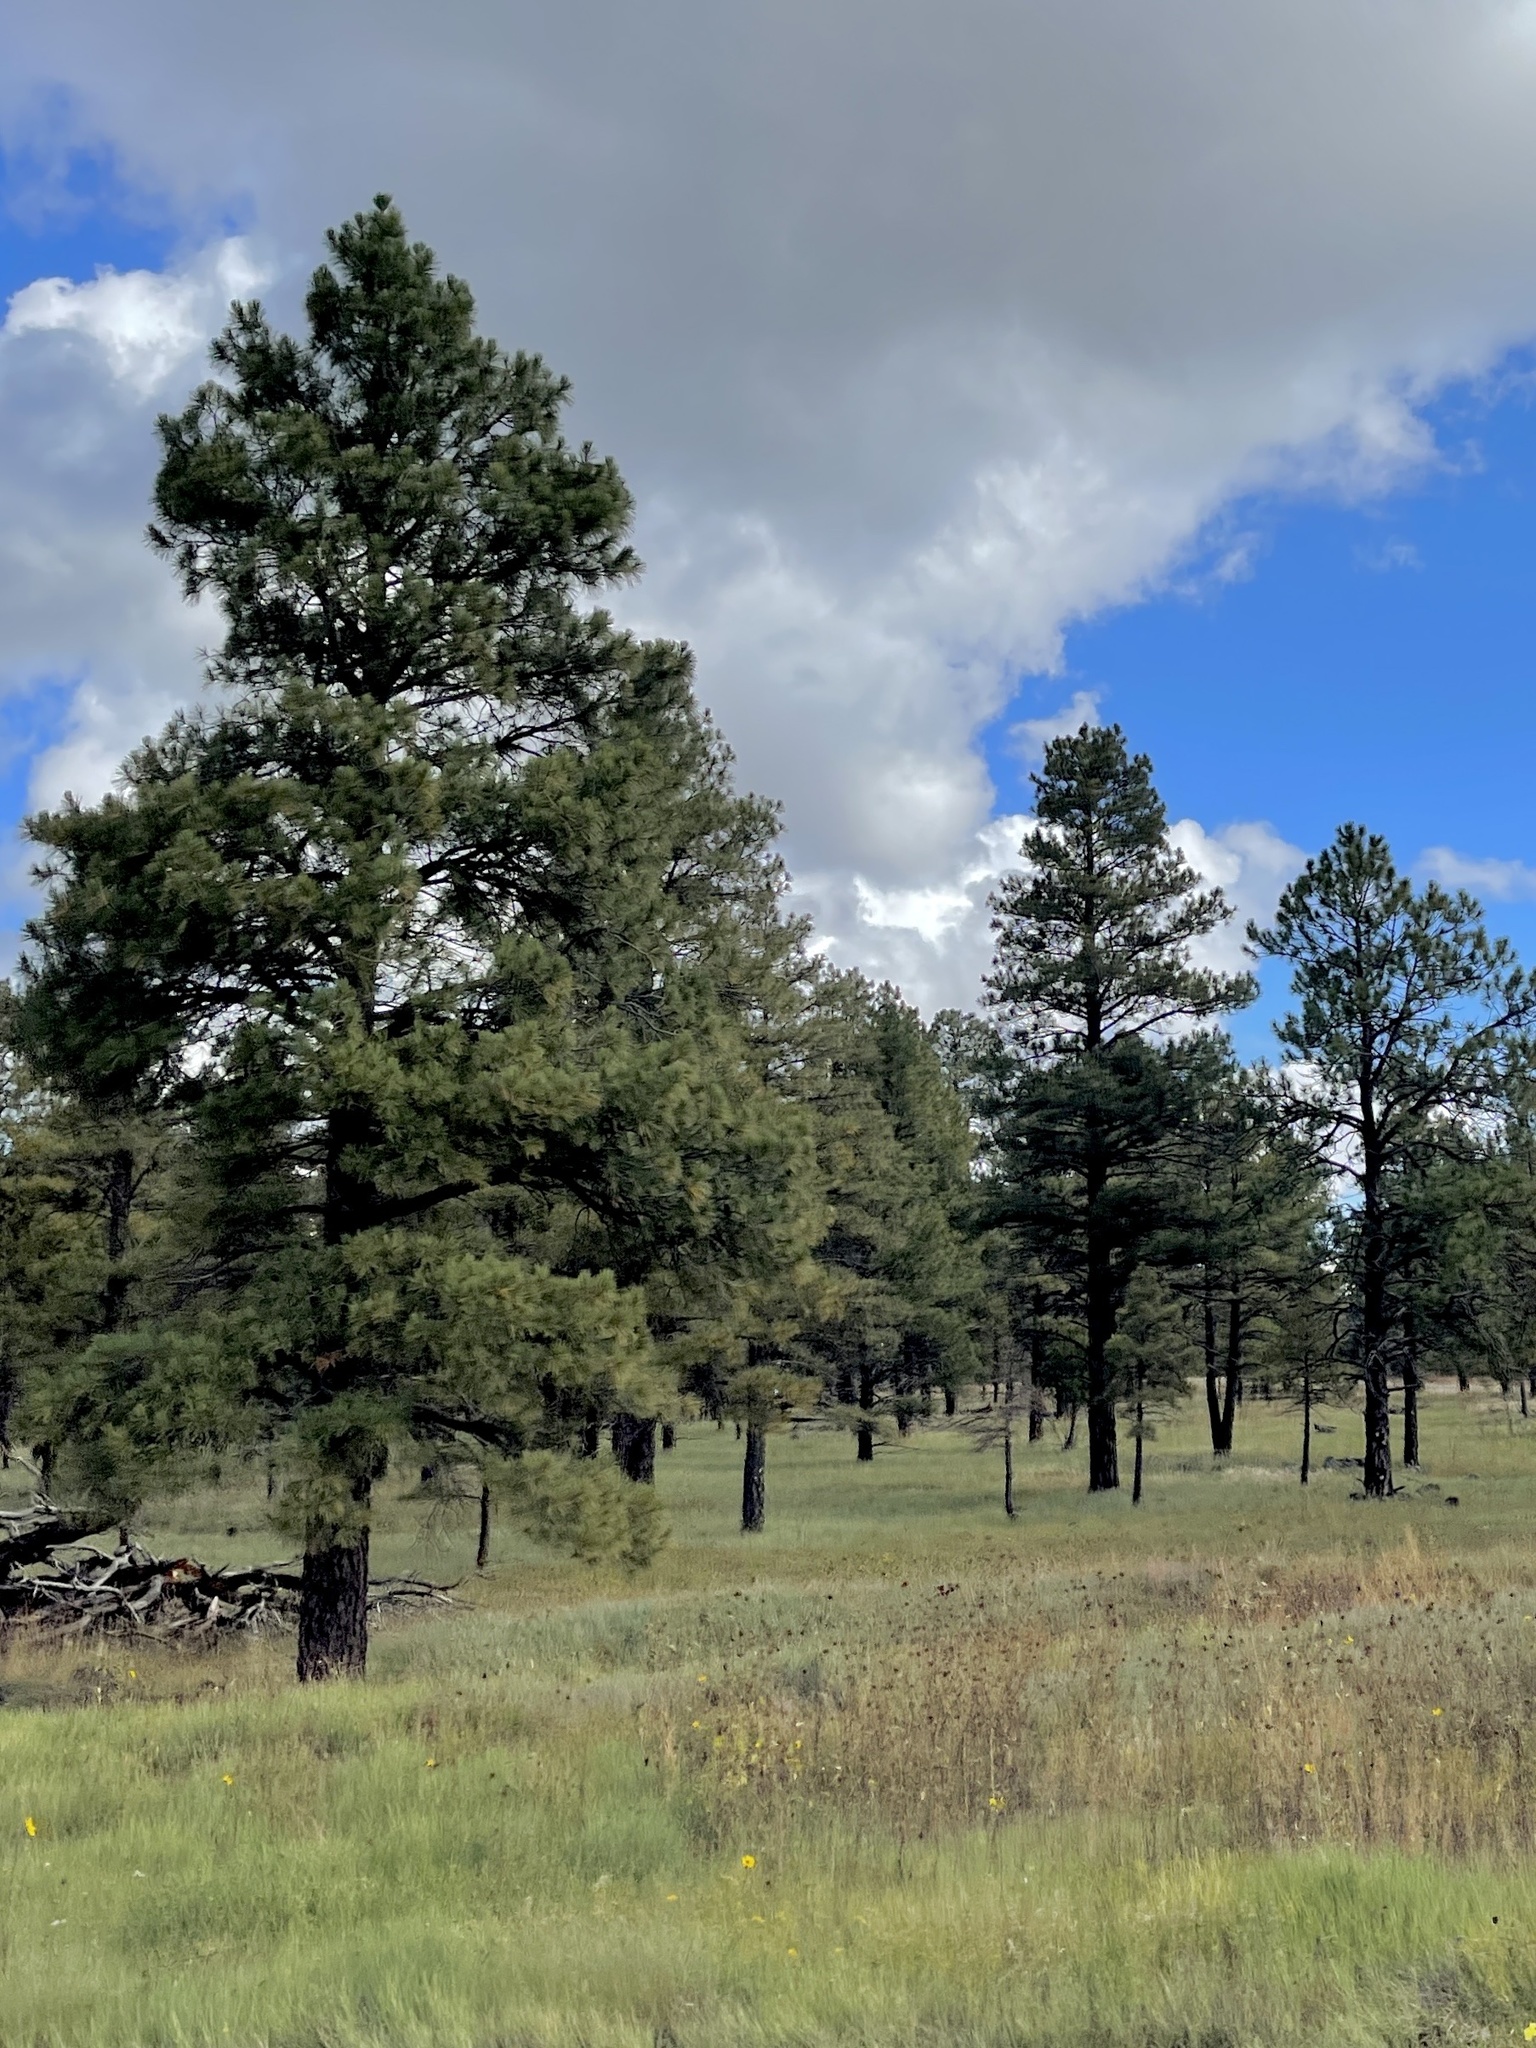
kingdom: Plantae
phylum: Tracheophyta
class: Pinopsida
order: Pinales
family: Pinaceae
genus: Pinus
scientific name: Pinus ponderosa
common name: Western yellow-pine
